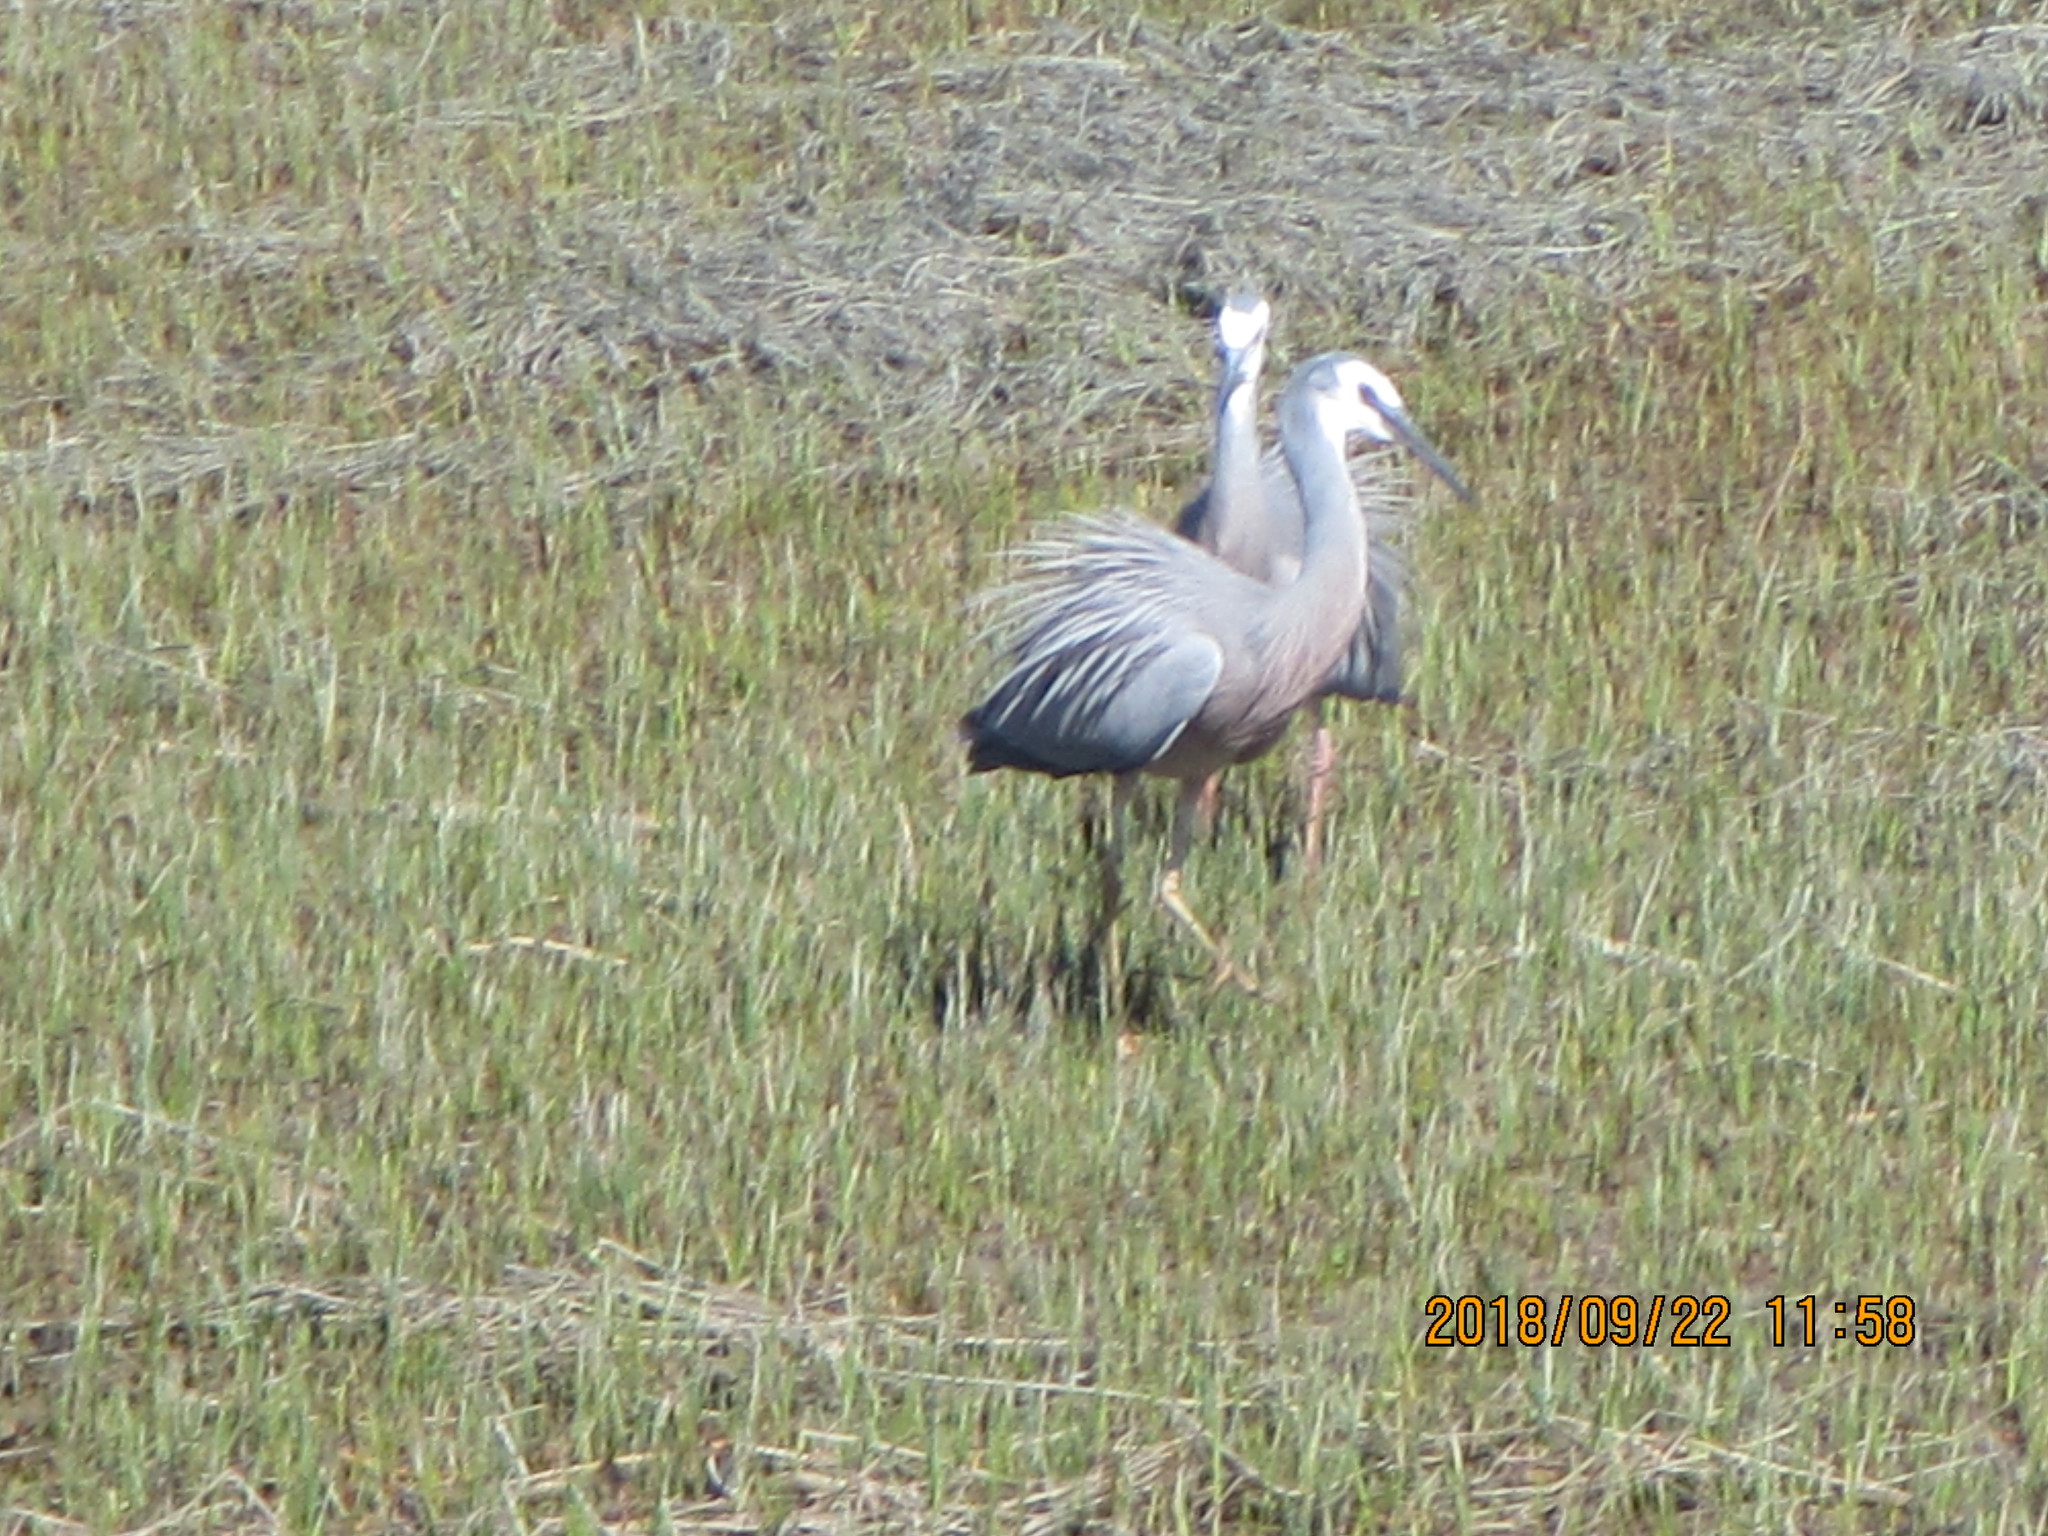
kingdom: Animalia
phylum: Chordata
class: Aves
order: Pelecaniformes
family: Ardeidae
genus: Egretta
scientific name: Egretta novaehollandiae
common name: White-faced heron
